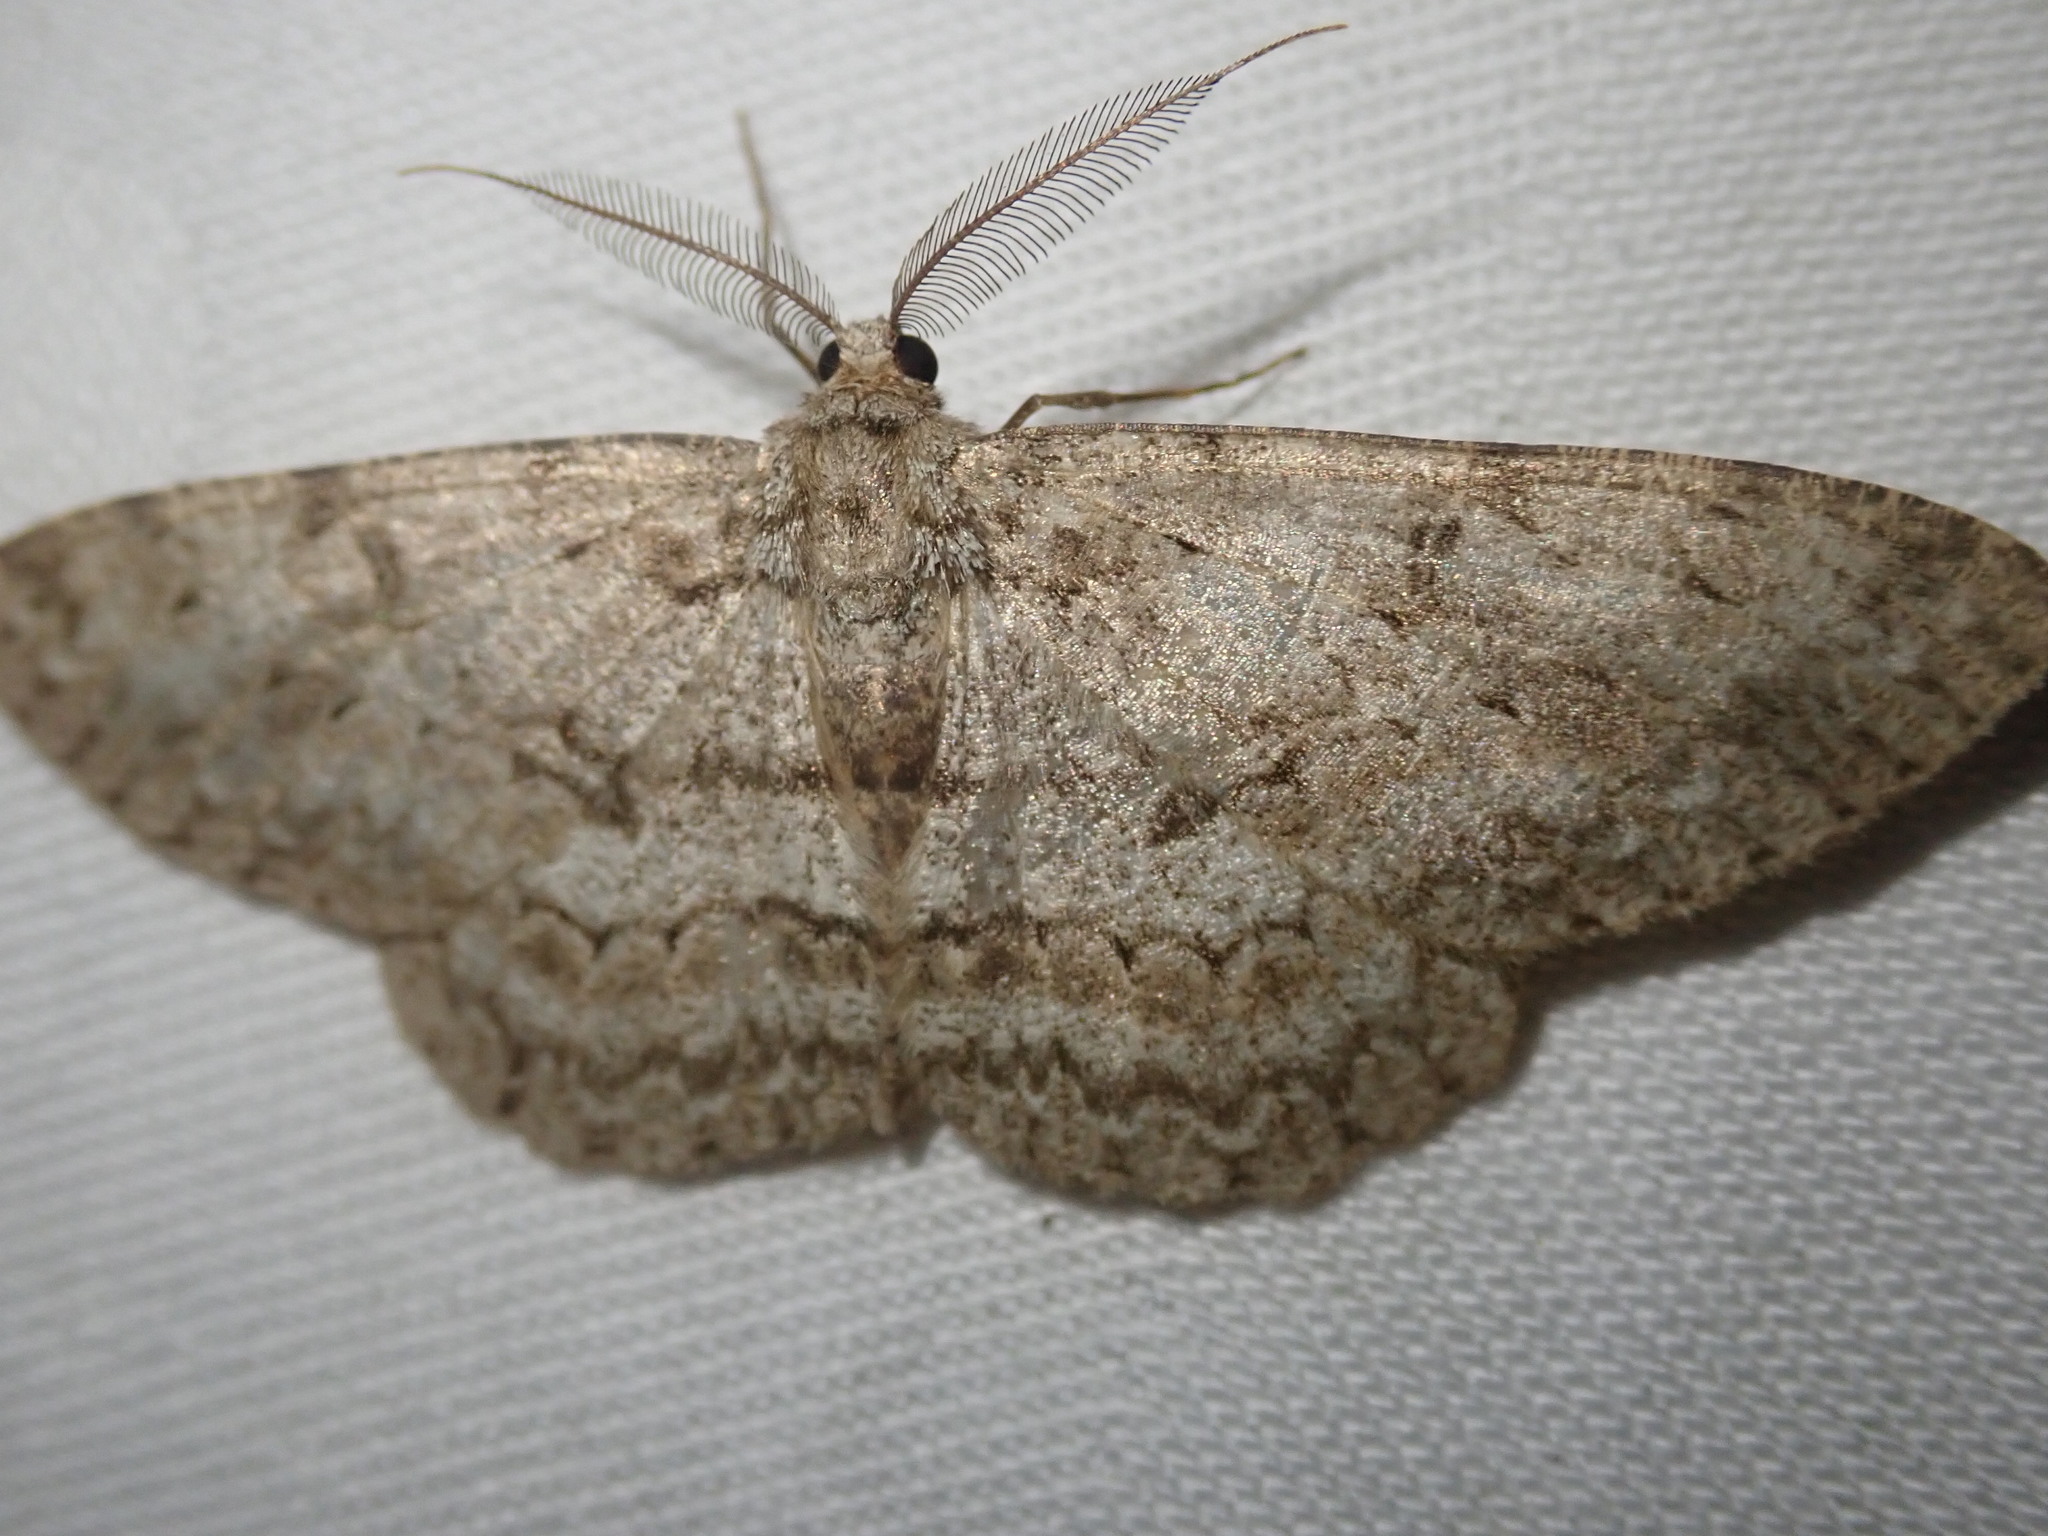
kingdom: Animalia
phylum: Arthropoda
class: Insecta
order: Lepidoptera
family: Geometridae
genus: Hypomecis
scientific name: Hypomecis punctinalis
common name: Pale oak beauty
